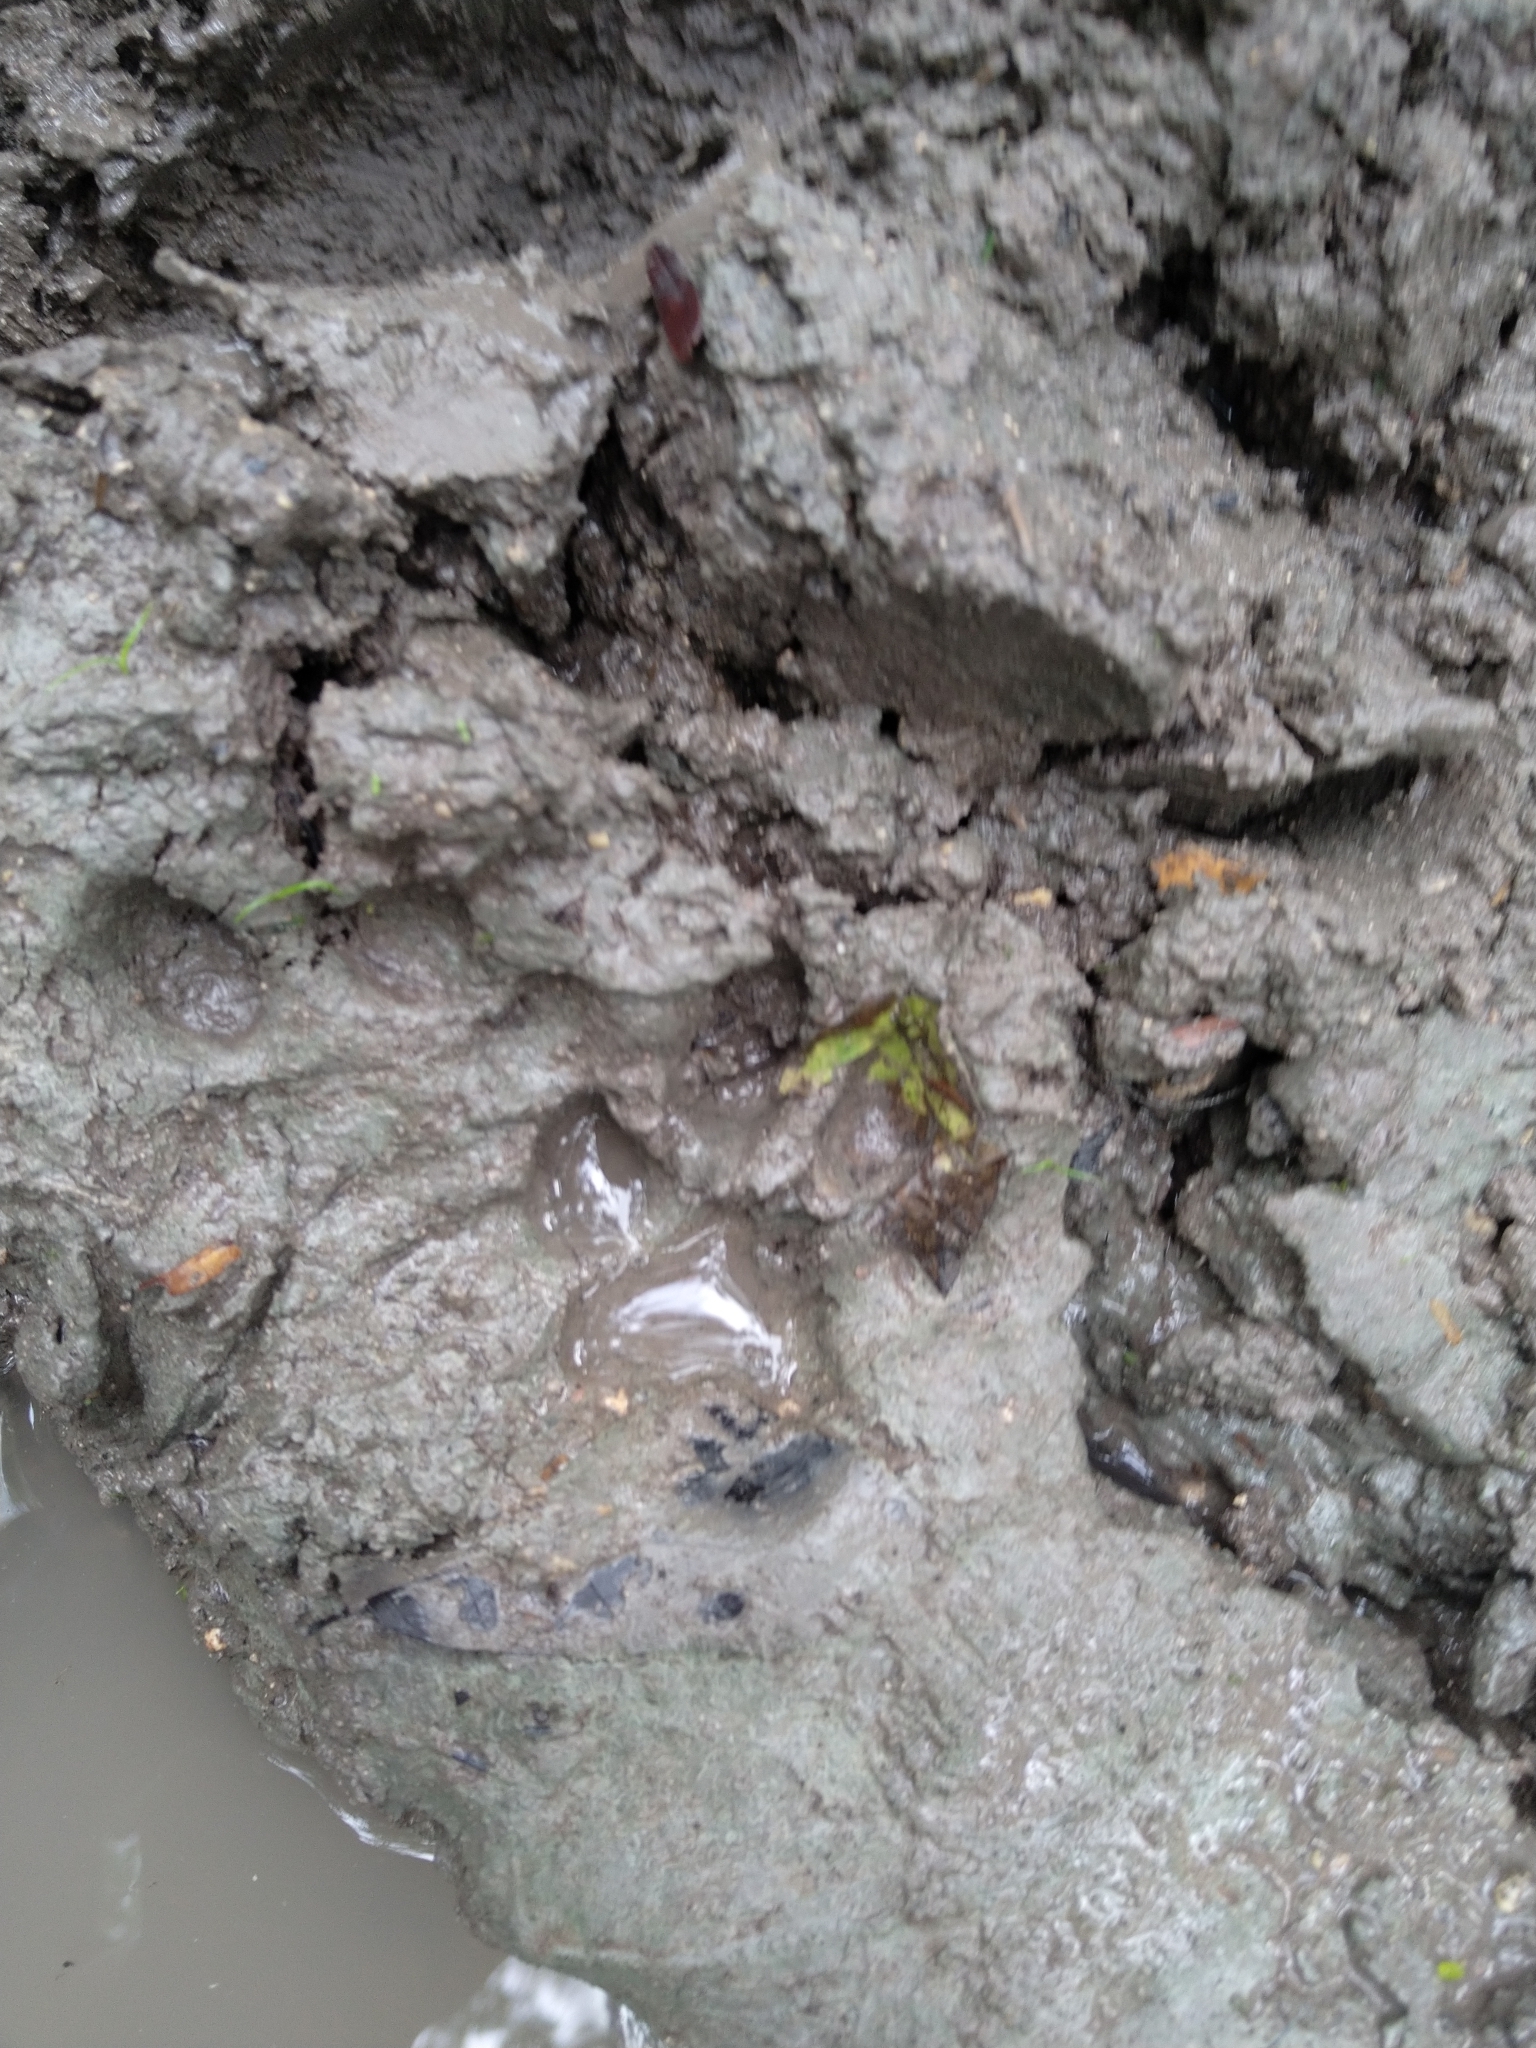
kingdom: Animalia
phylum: Chordata
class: Mammalia
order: Carnivora
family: Felidae
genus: Panthera
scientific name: Panthera onca
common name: Jaguar
